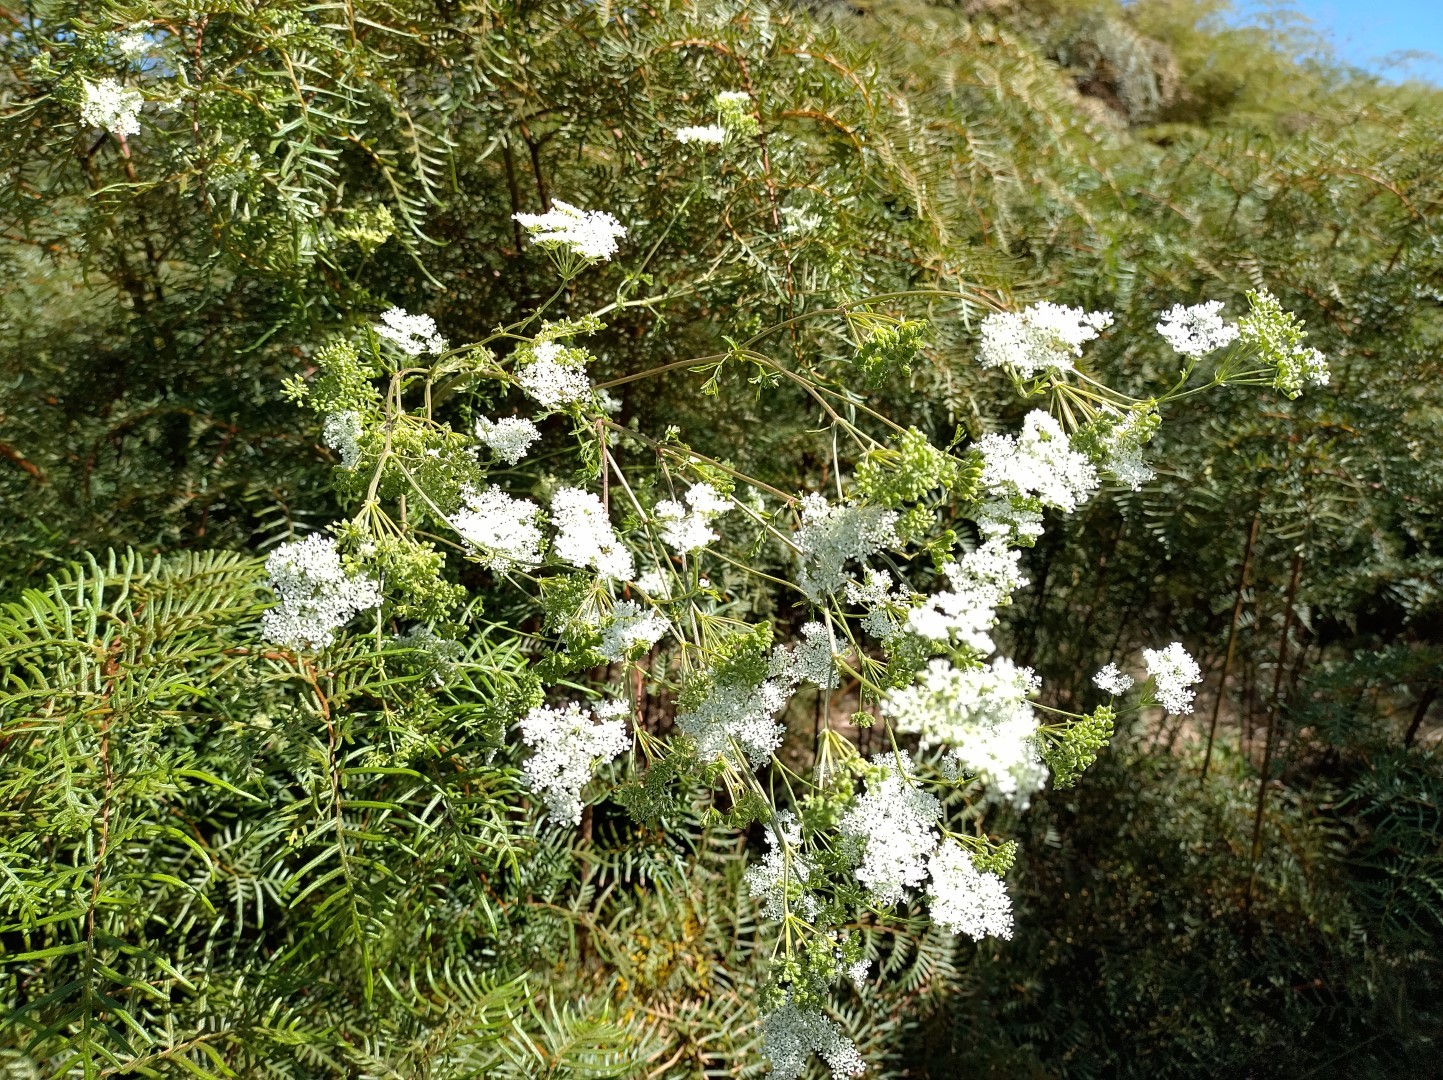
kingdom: Plantae
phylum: Tracheophyta
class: Magnoliopsida
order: Apiales
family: Apiaceae
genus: Conium
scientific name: Conium maculatum
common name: Hemlock
